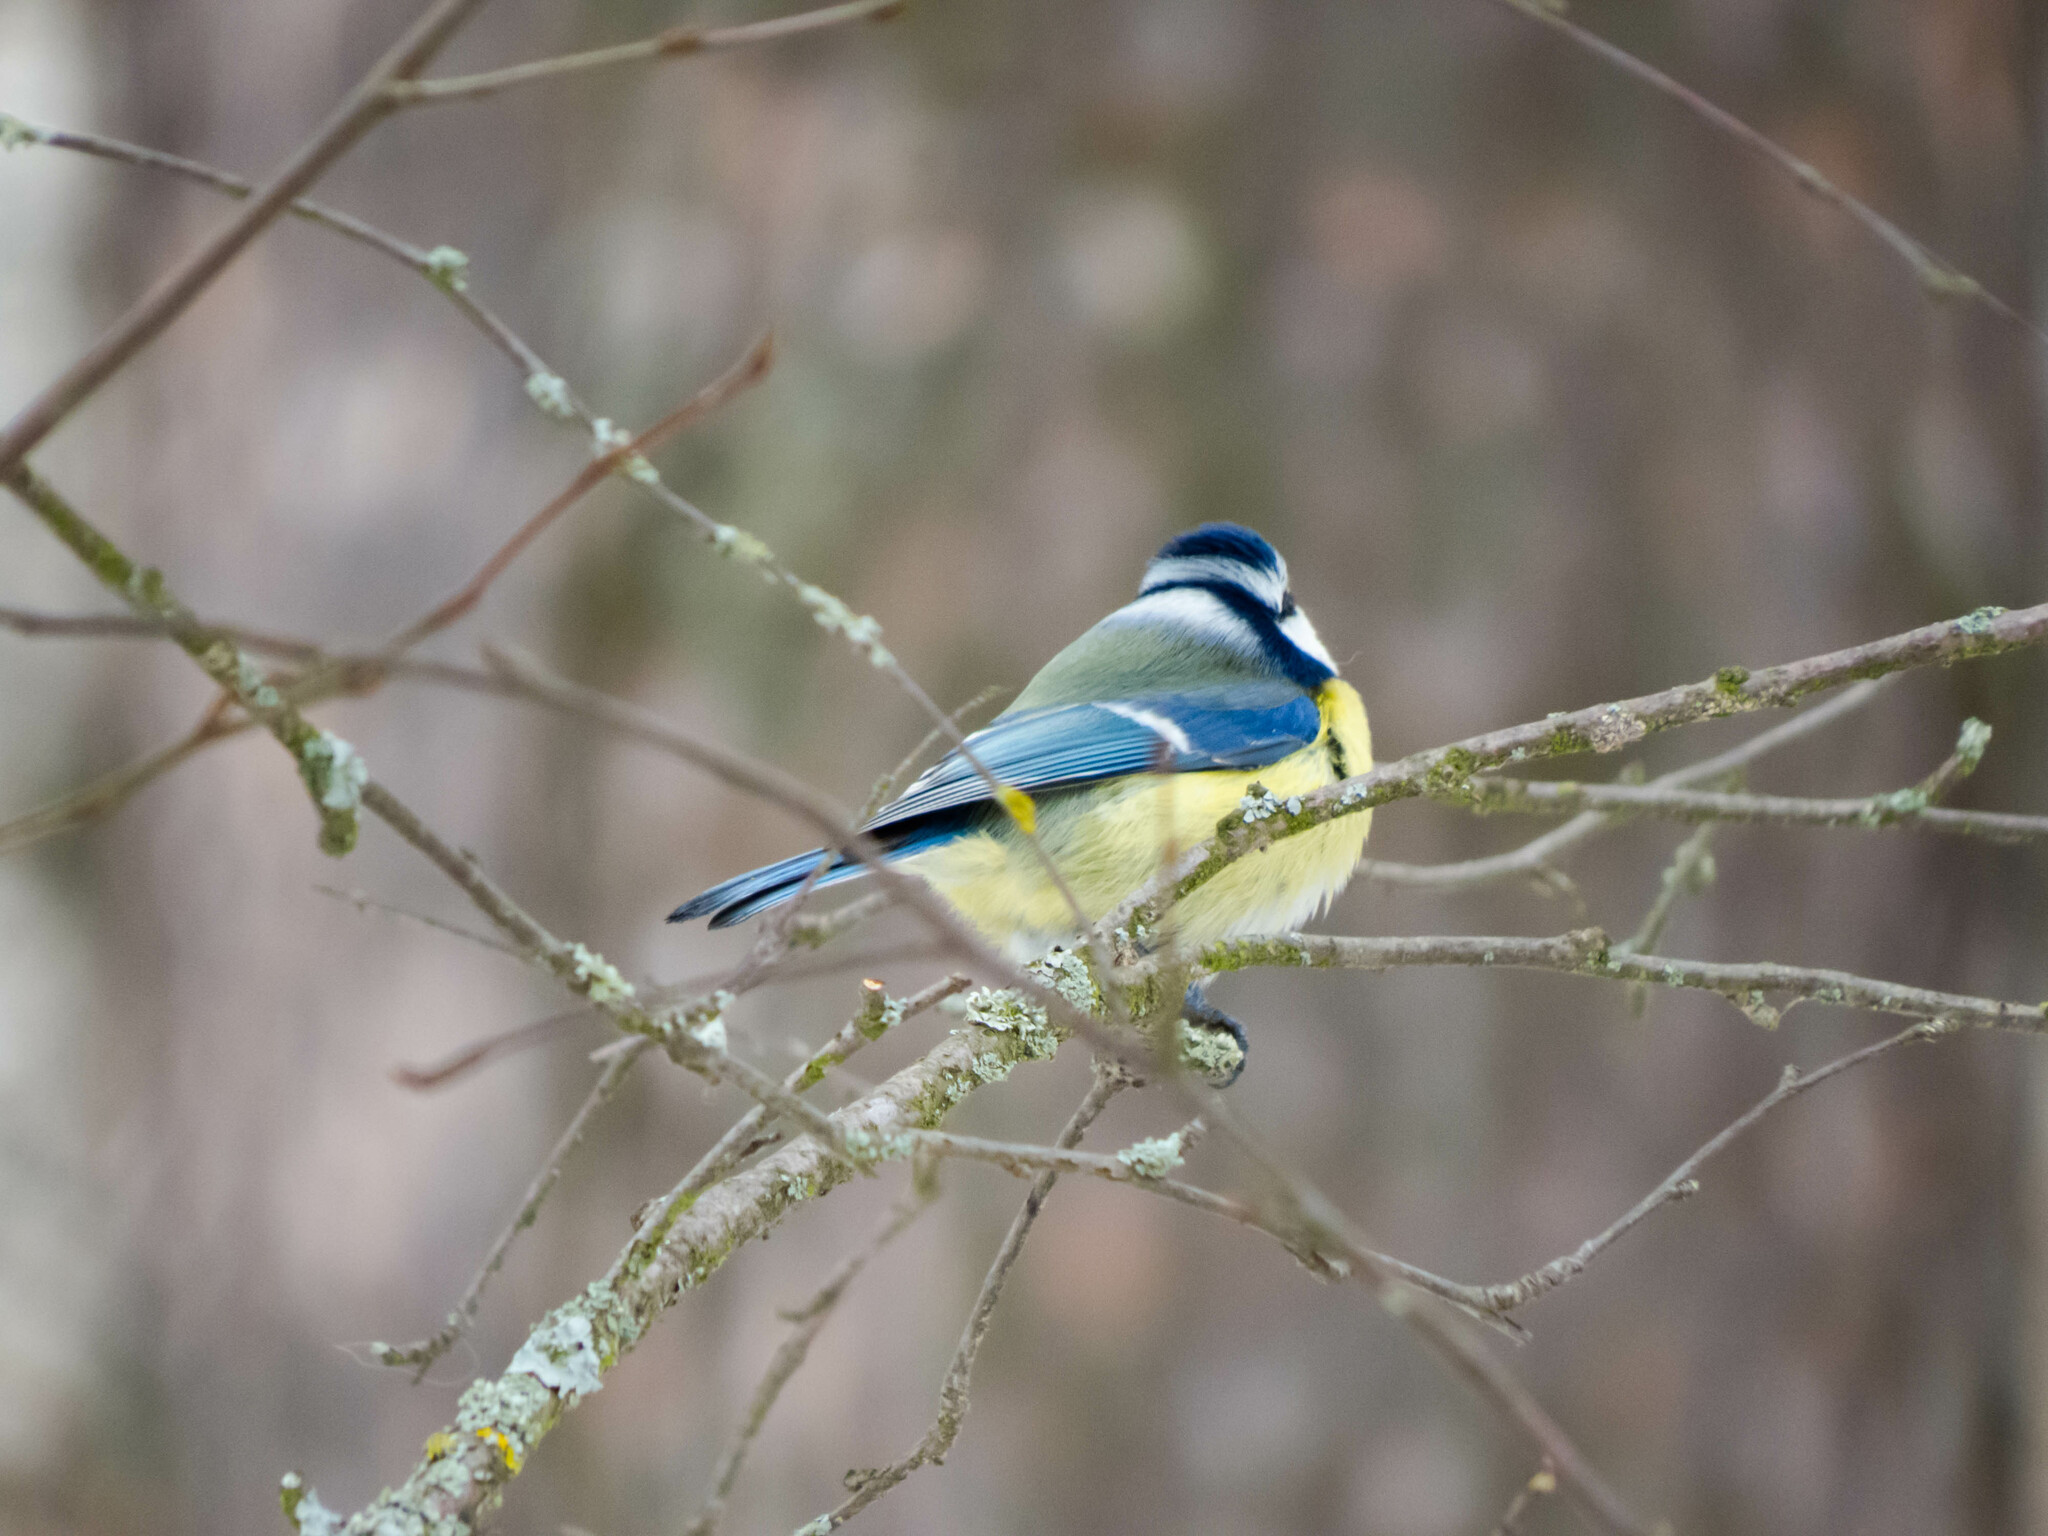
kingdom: Animalia
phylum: Chordata
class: Aves
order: Passeriformes
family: Paridae
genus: Cyanistes
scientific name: Cyanistes caeruleus
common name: Eurasian blue tit
